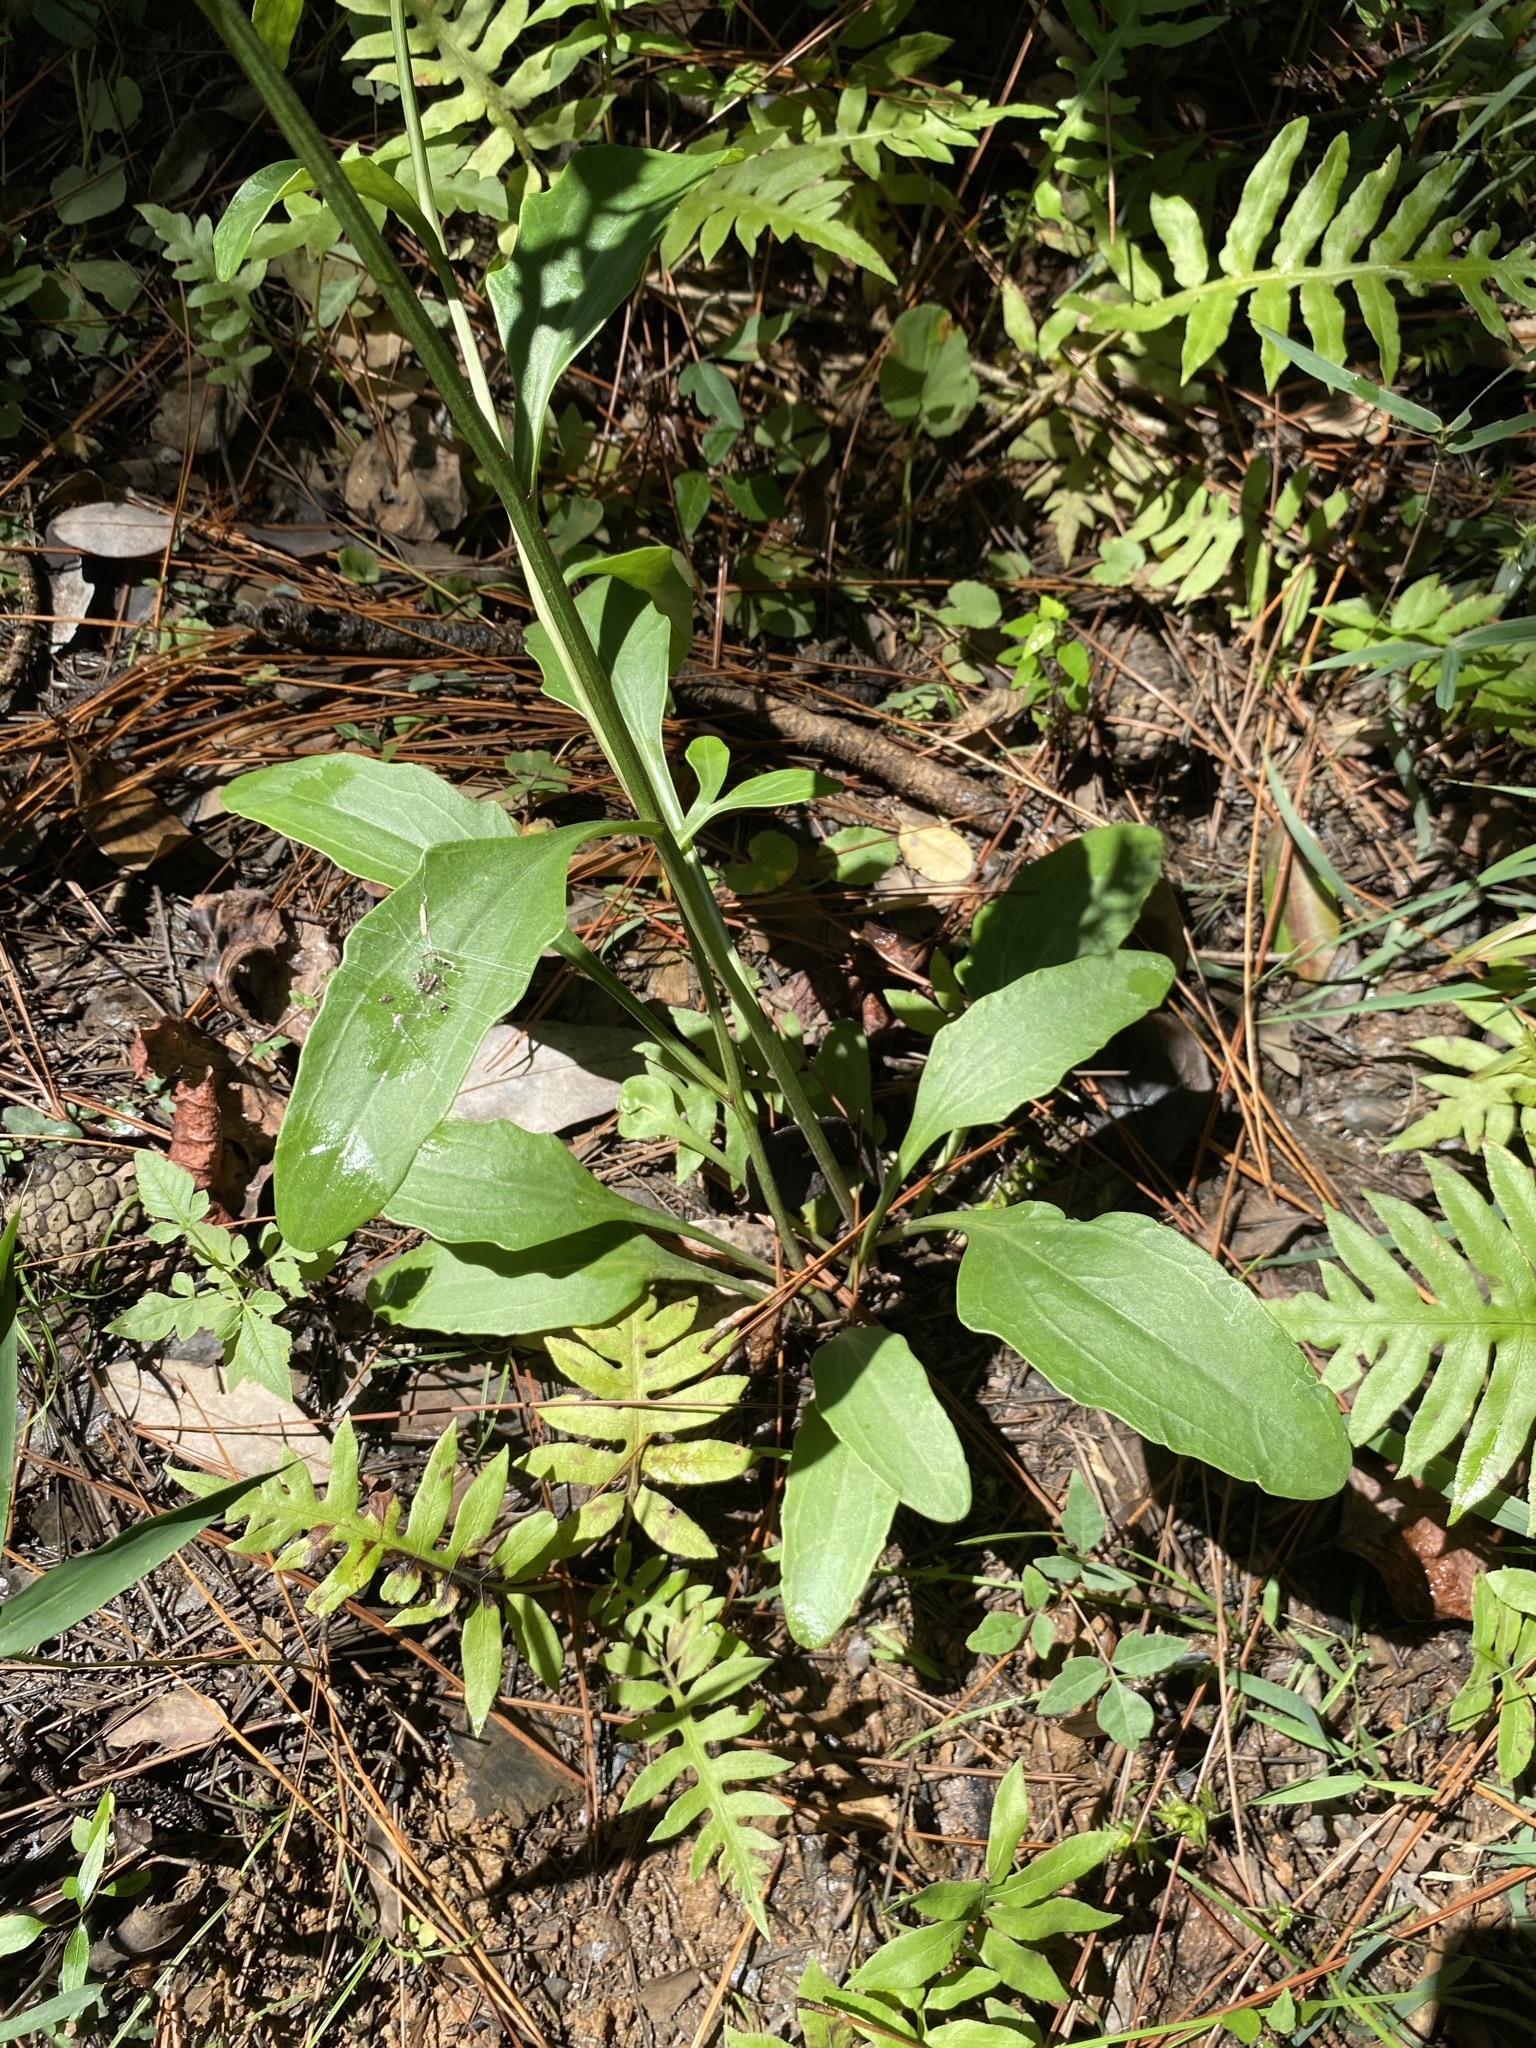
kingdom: Plantae
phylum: Tracheophyta
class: Magnoliopsida
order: Asterales
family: Asteraceae
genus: Arnoglossum
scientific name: Arnoglossum sulcatum
